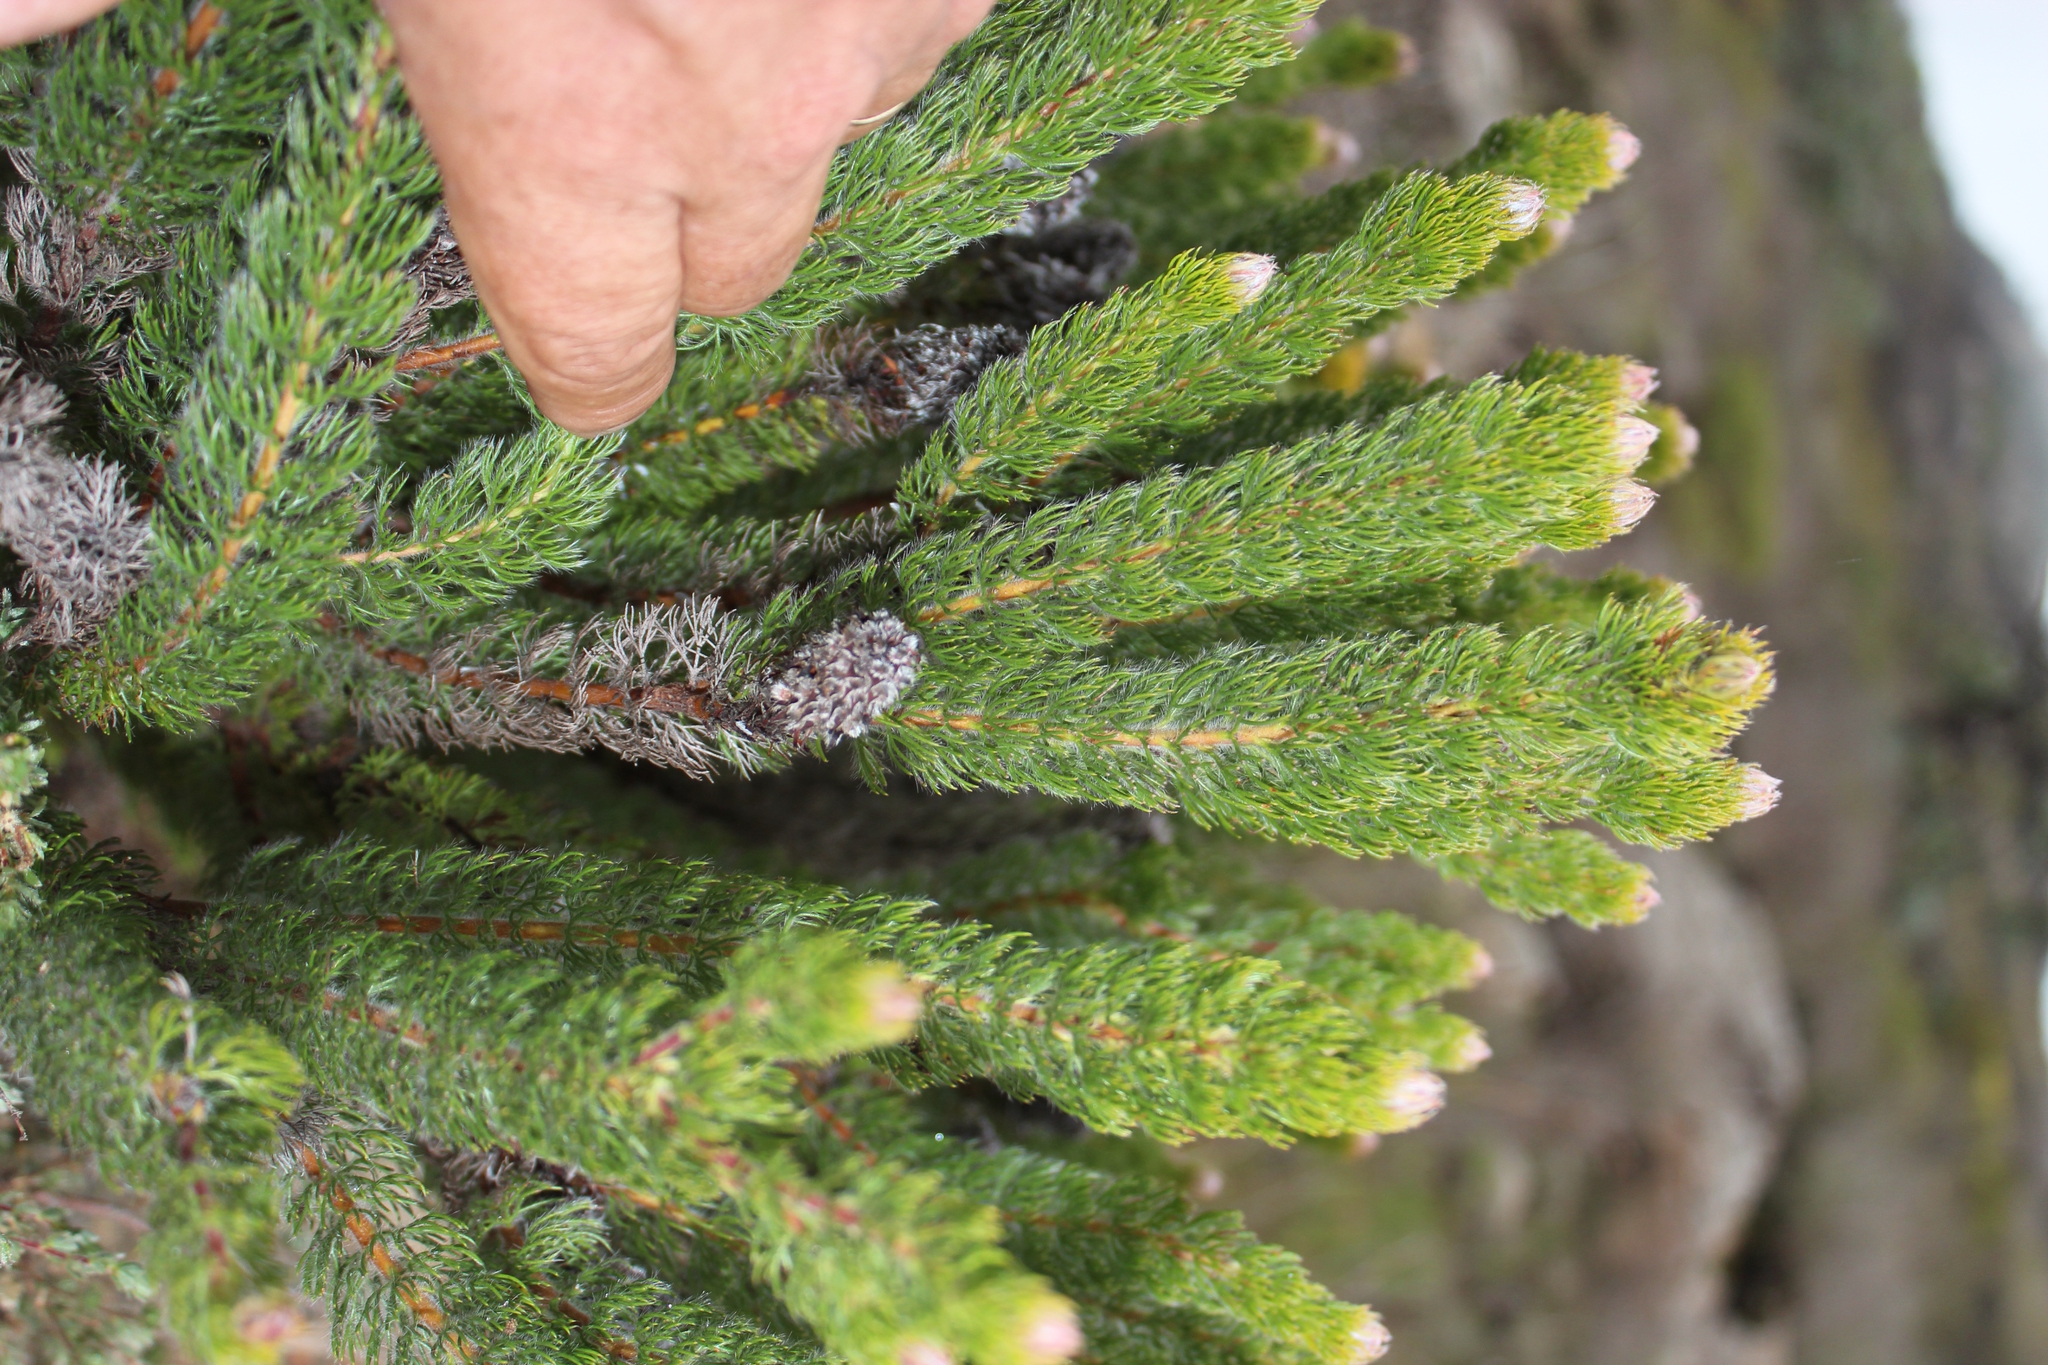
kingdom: Plantae
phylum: Tracheophyta
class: Magnoliopsida
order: Proteales
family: Proteaceae
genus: Serruria
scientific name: Serruria brownii
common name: Bottlebrush spiderhead
